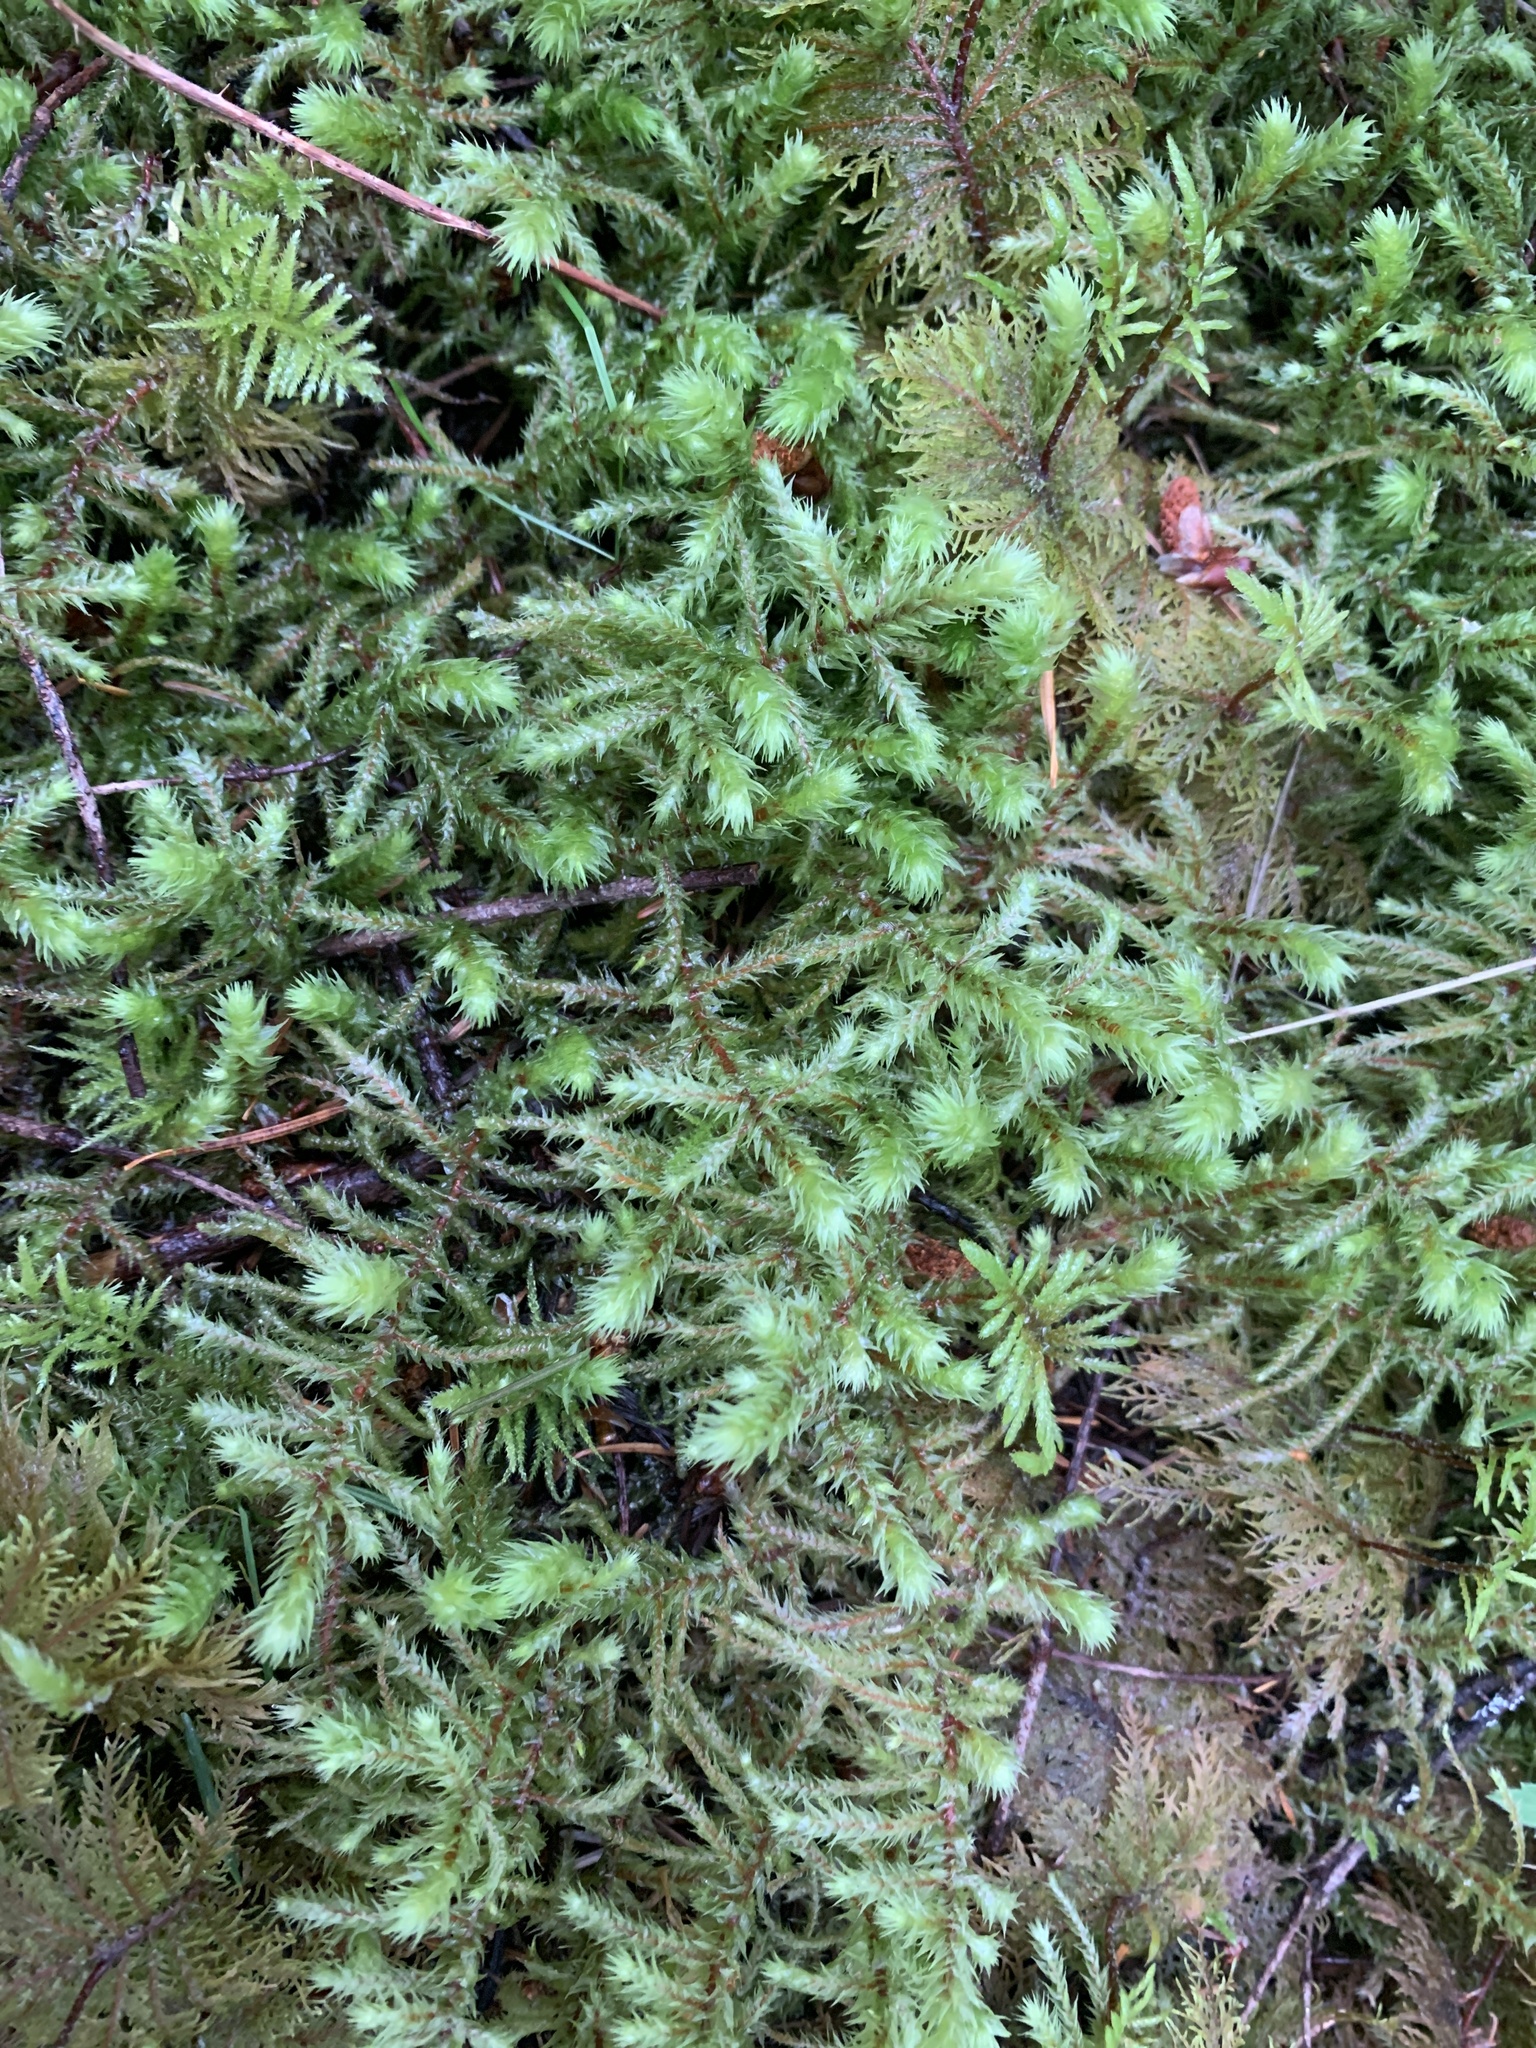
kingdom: Plantae
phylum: Bryophyta
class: Bryopsida
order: Hypnales
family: Hylocomiaceae
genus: Hylocomiadelphus
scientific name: Hylocomiadelphus triquetrus
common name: Rough goose neck moss
